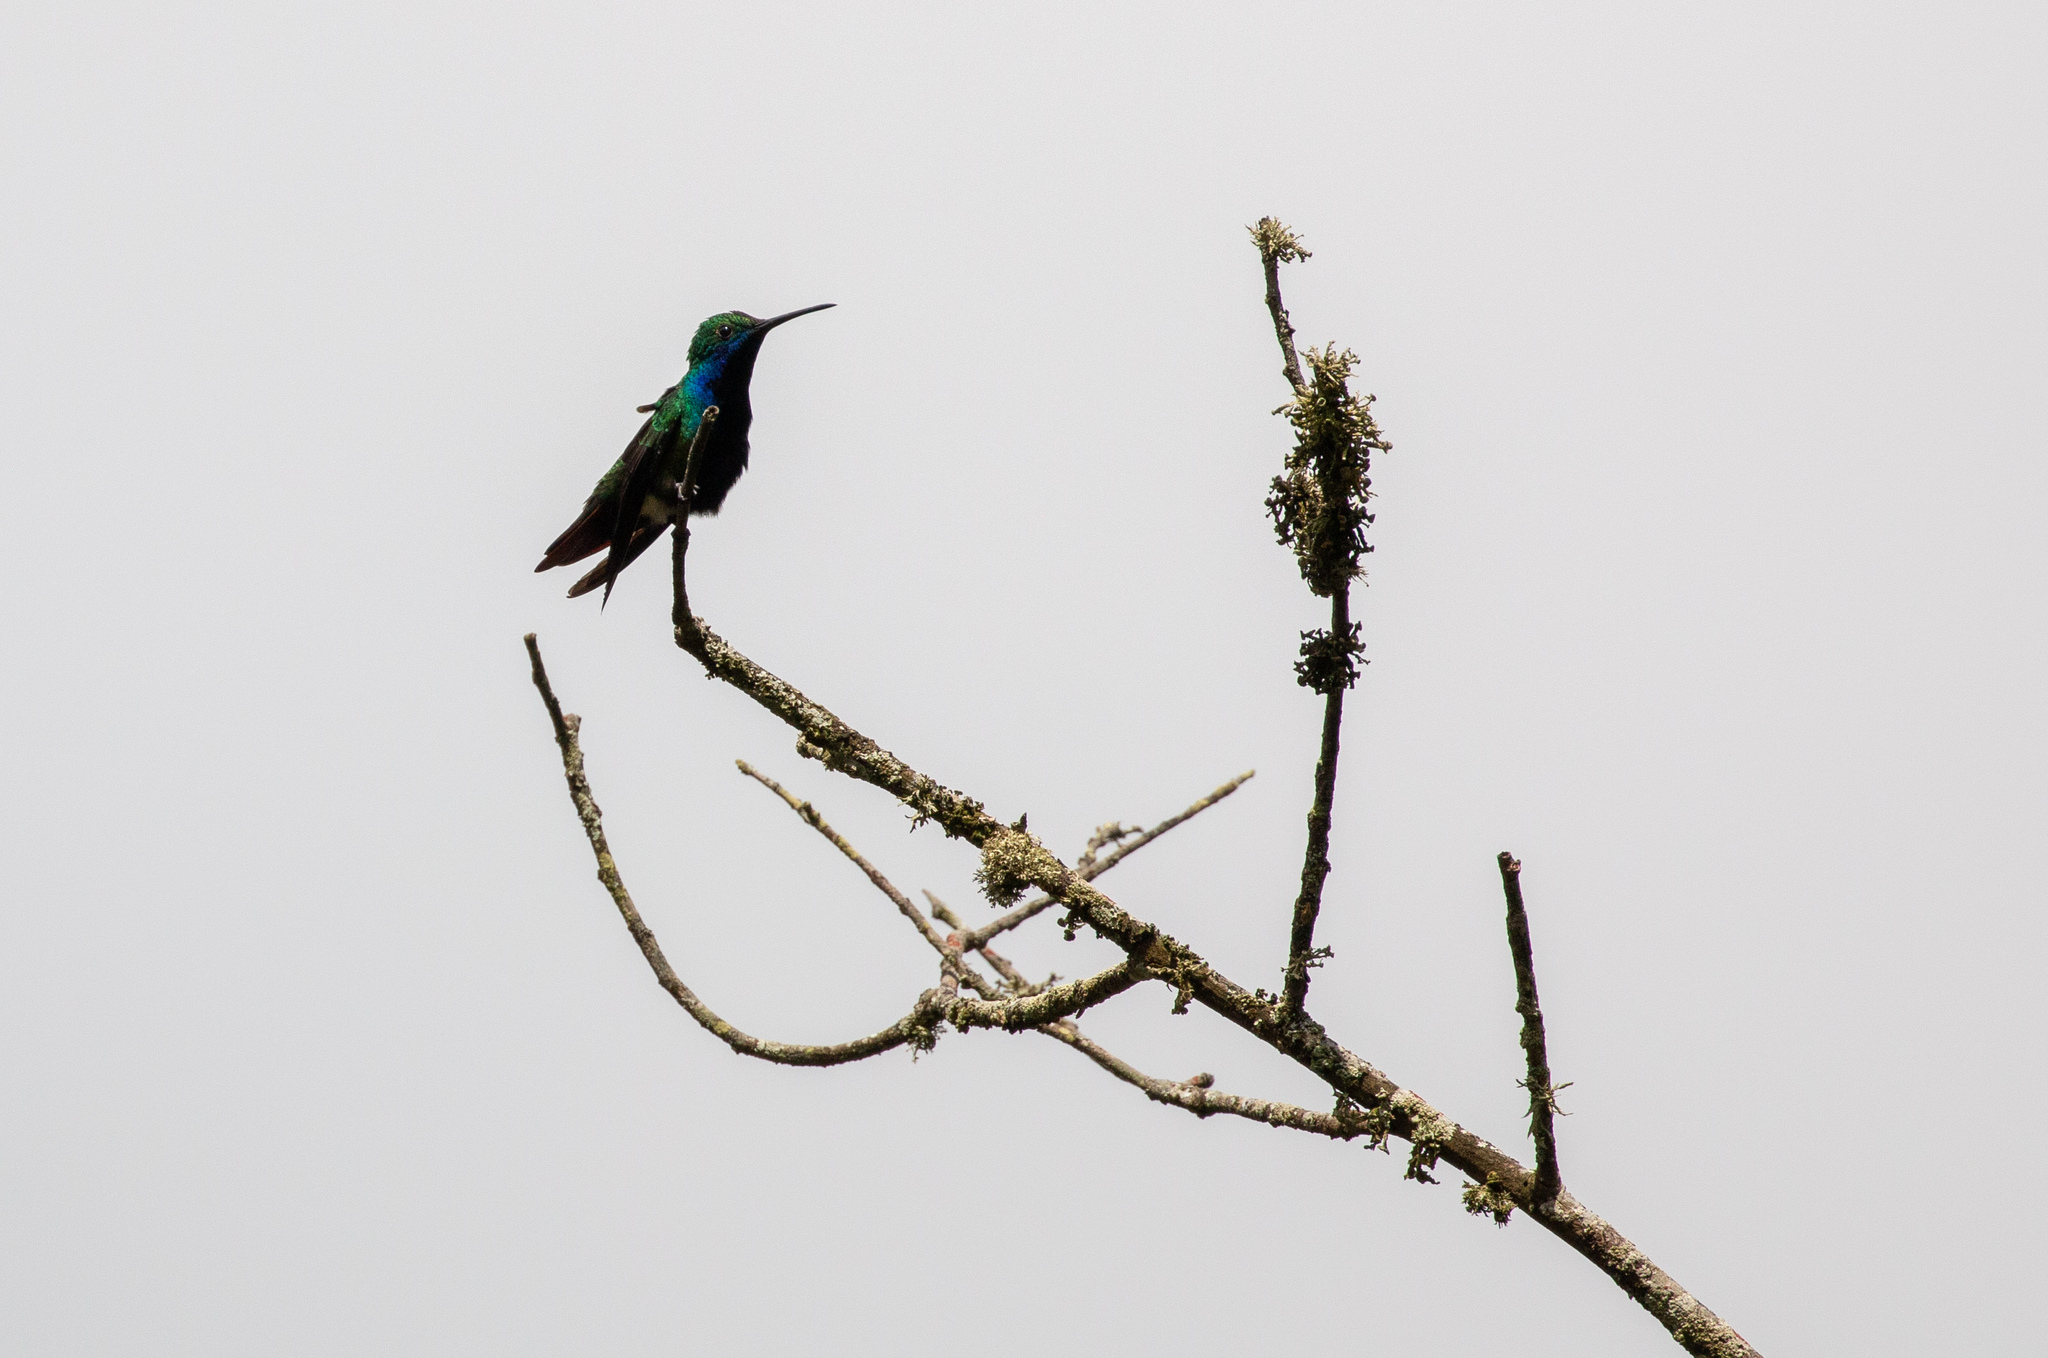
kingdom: Animalia
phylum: Chordata
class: Aves
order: Apodiformes
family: Trochilidae
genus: Anthracothorax
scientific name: Anthracothorax nigricollis
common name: Black-throated mango
